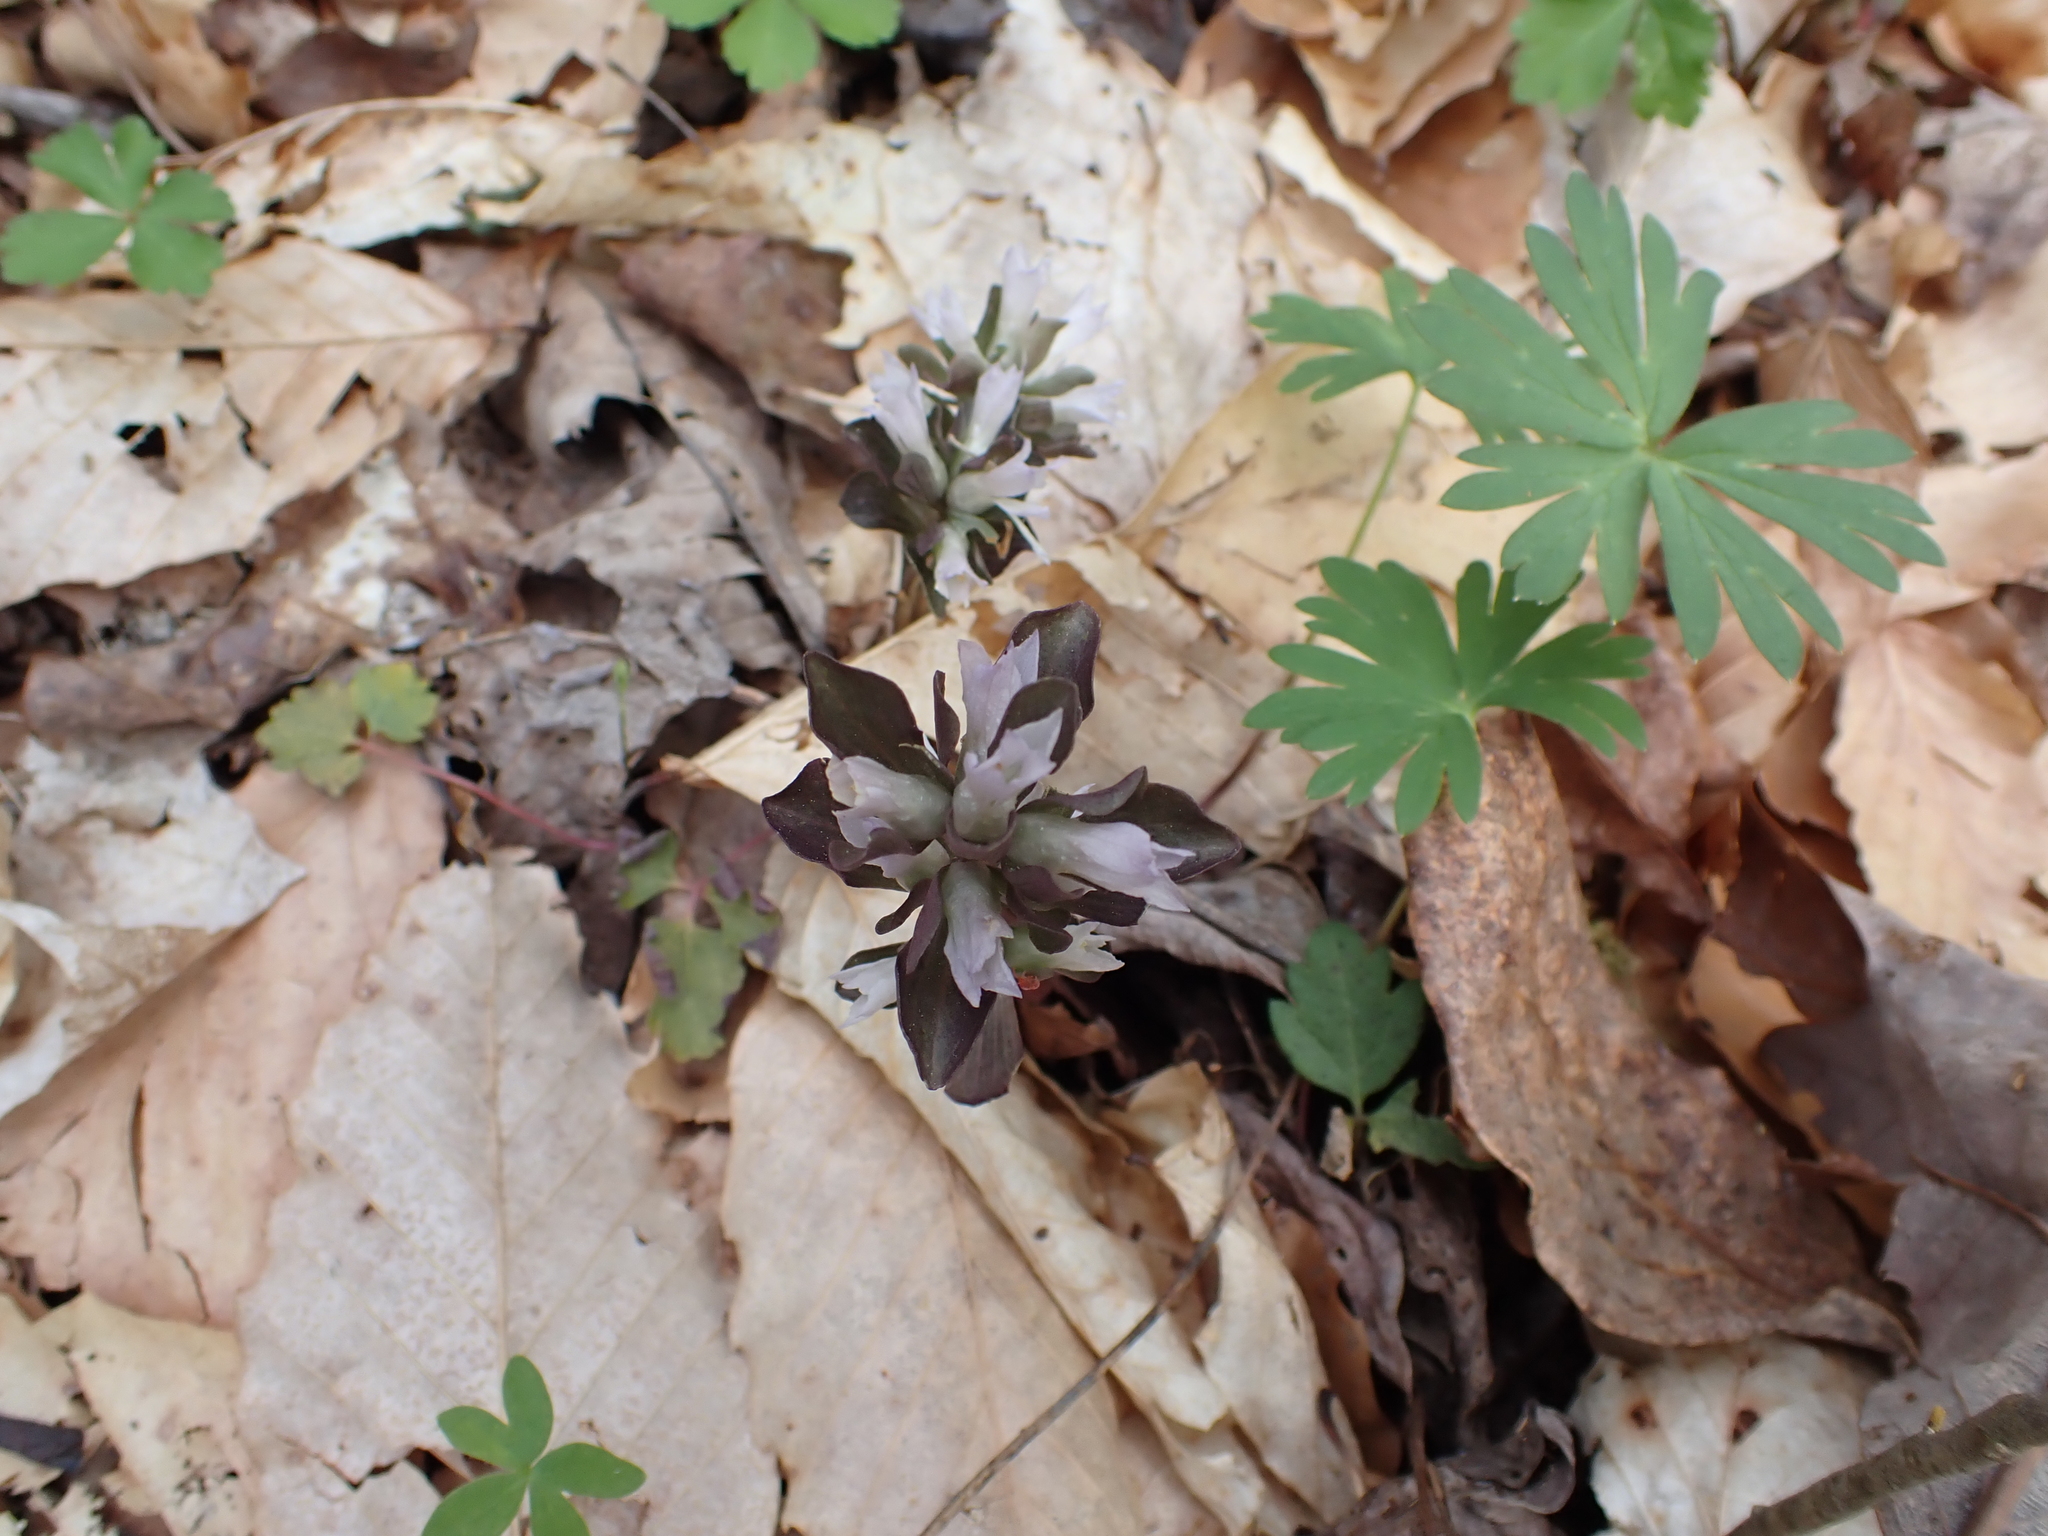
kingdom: Plantae
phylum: Tracheophyta
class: Magnoliopsida
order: Gentianales
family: Gentianaceae
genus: Obolaria
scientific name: Obolaria virginica
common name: Pennywort
